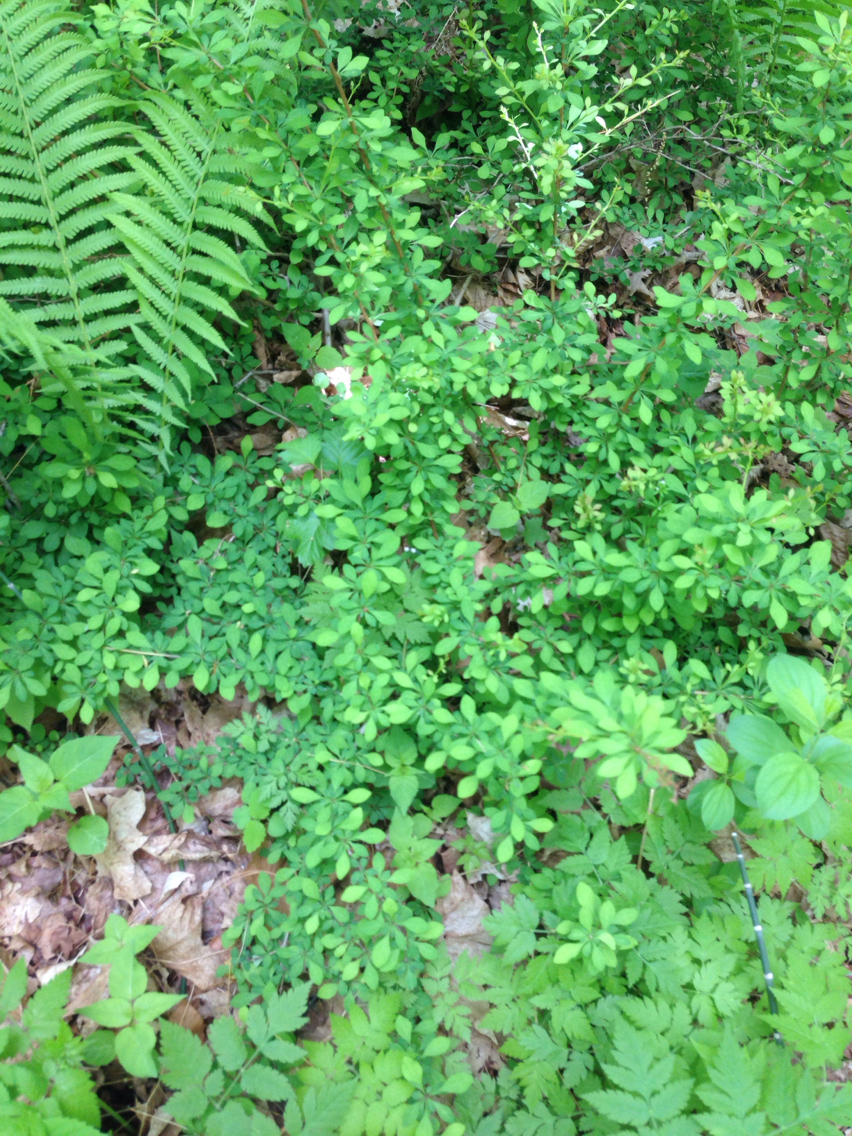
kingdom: Plantae
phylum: Tracheophyta
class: Magnoliopsida
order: Ranunculales
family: Berberidaceae
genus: Berberis
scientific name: Berberis thunbergii
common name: Japanese barberry
